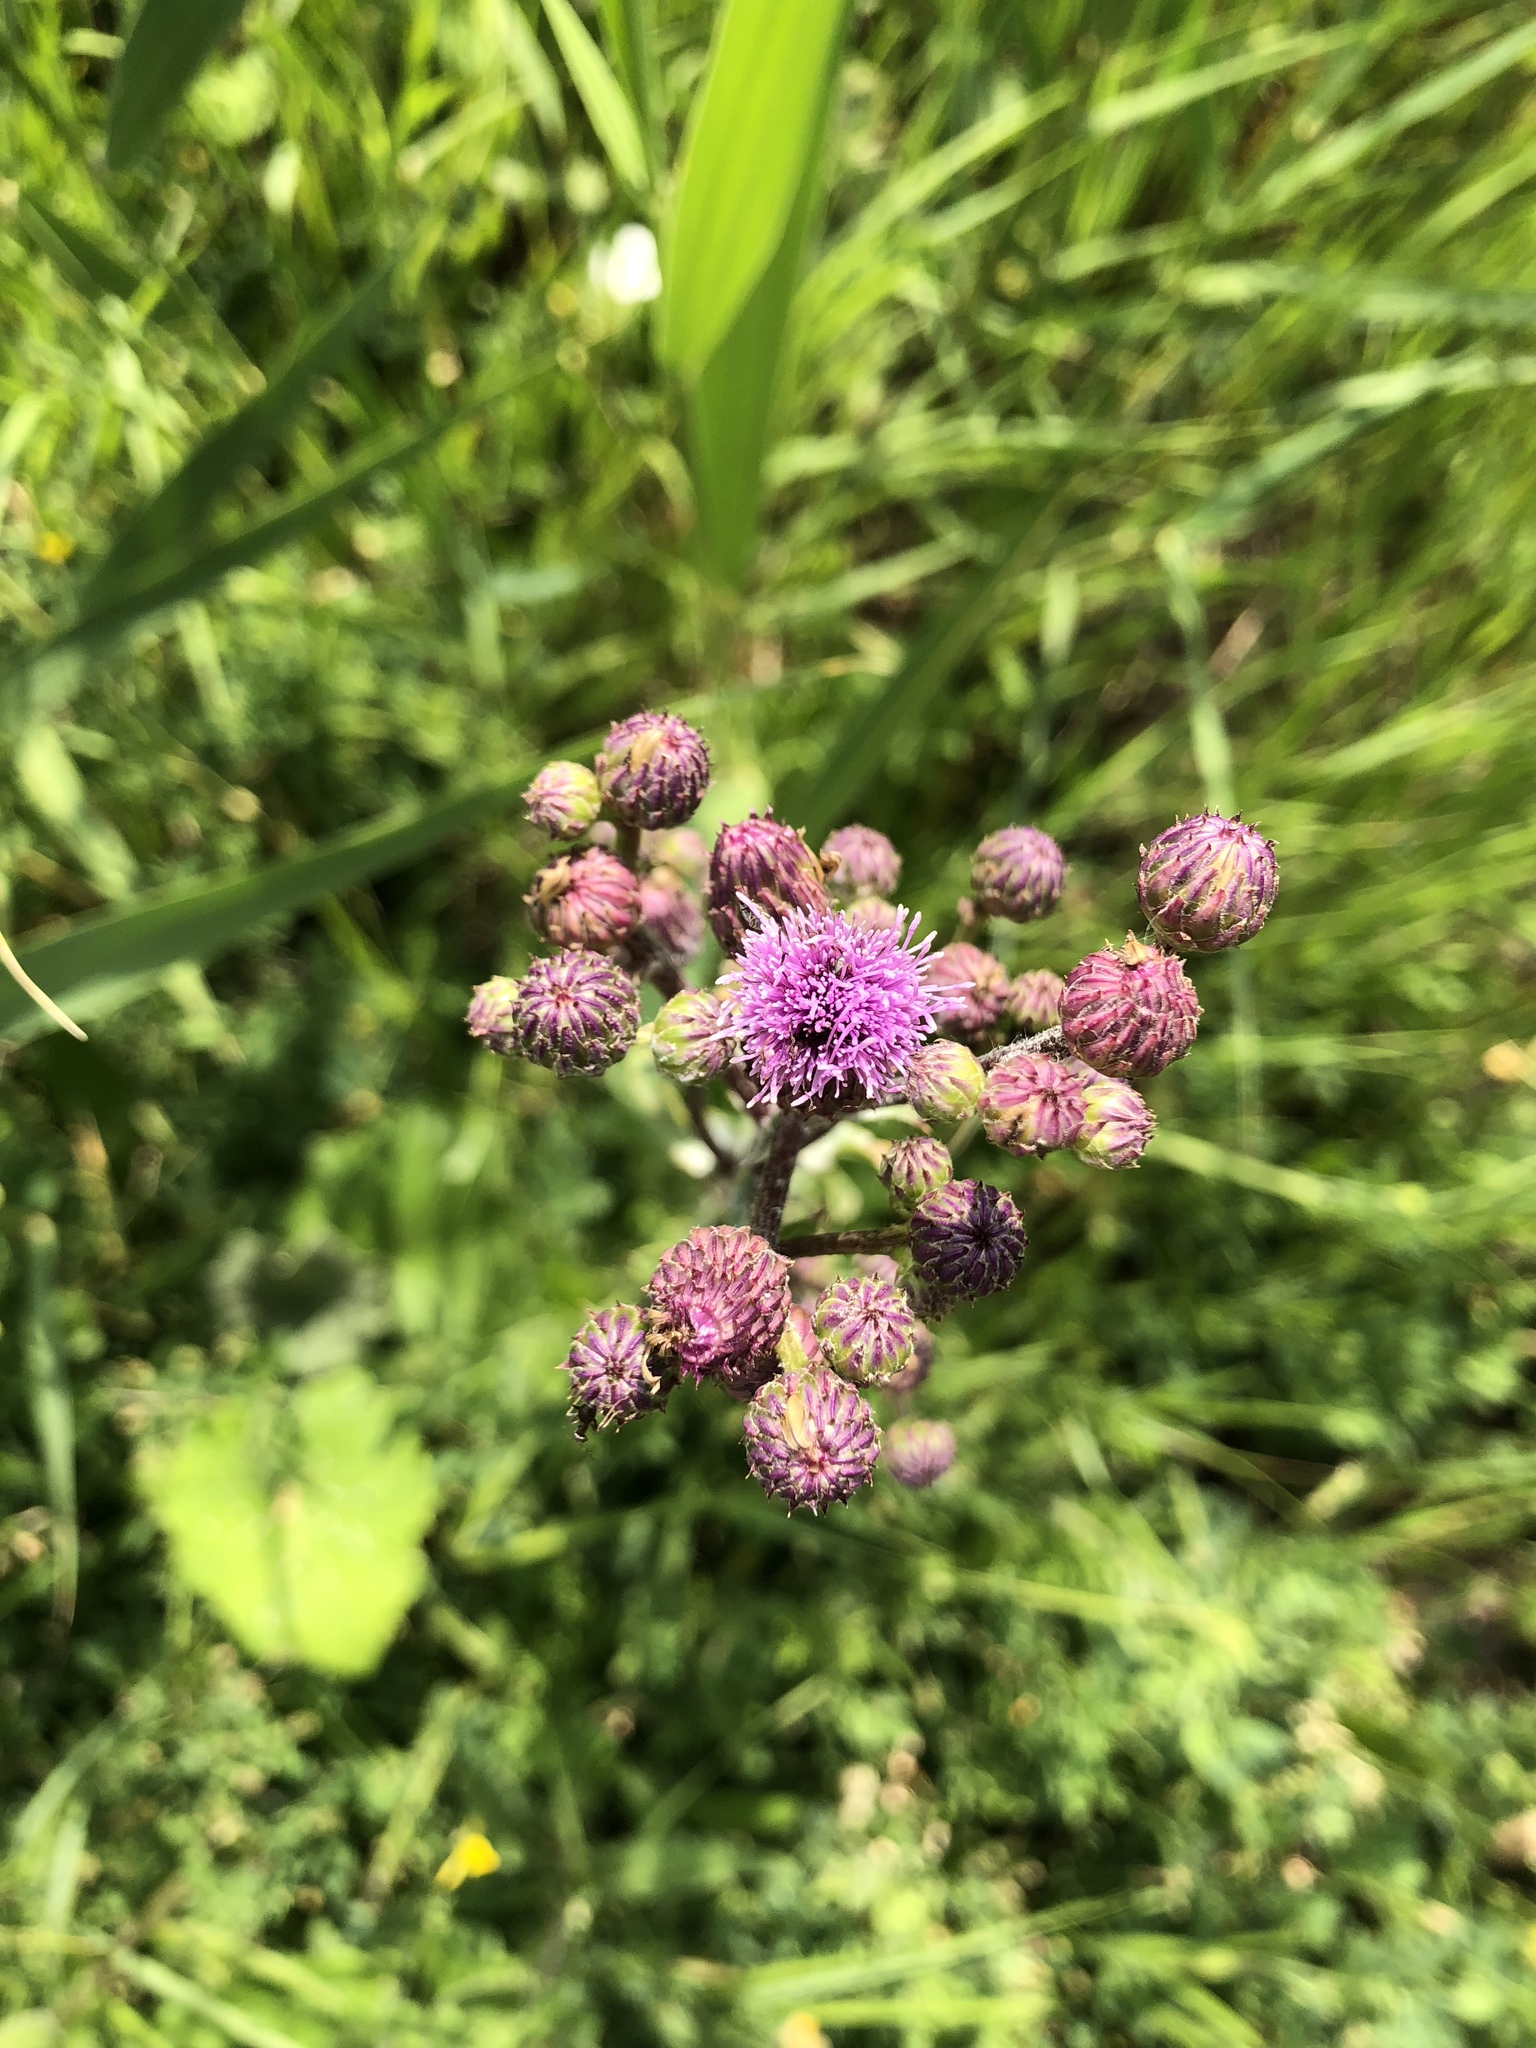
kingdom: Plantae
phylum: Tracheophyta
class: Magnoliopsida
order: Asterales
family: Asteraceae
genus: Cirsium
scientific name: Cirsium arvense
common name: Creeping thistle
